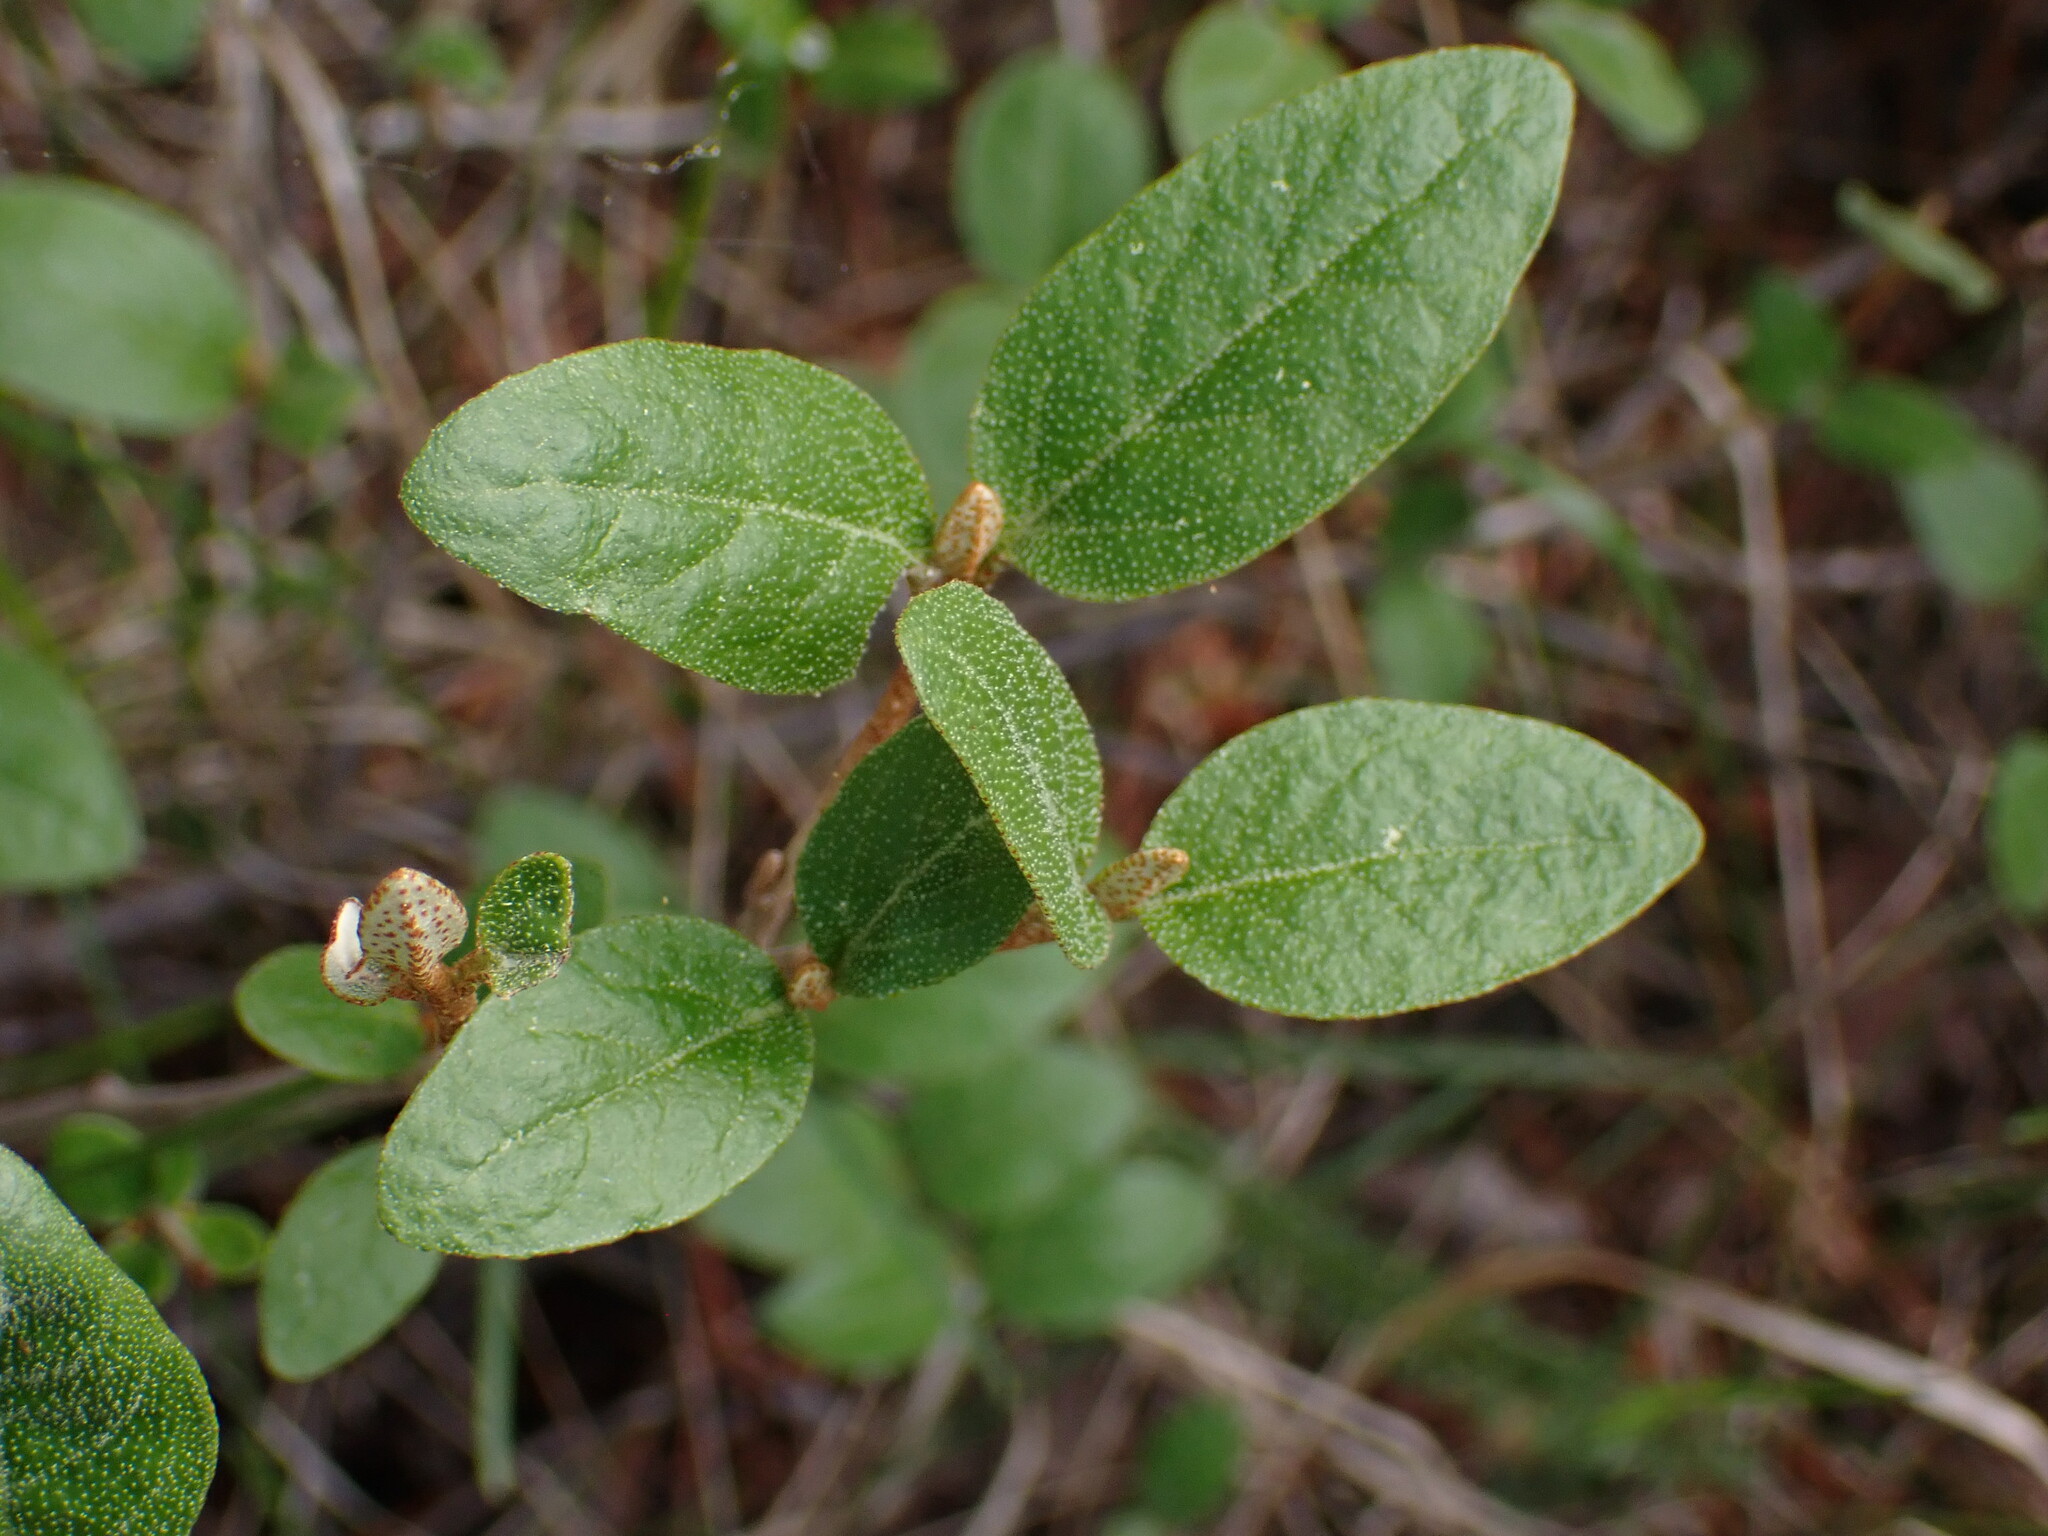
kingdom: Plantae
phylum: Tracheophyta
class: Magnoliopsida
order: Rosales
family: Elaeagnaceae
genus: Shepherdia
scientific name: Shepherdia canadensis
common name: Soapberry
